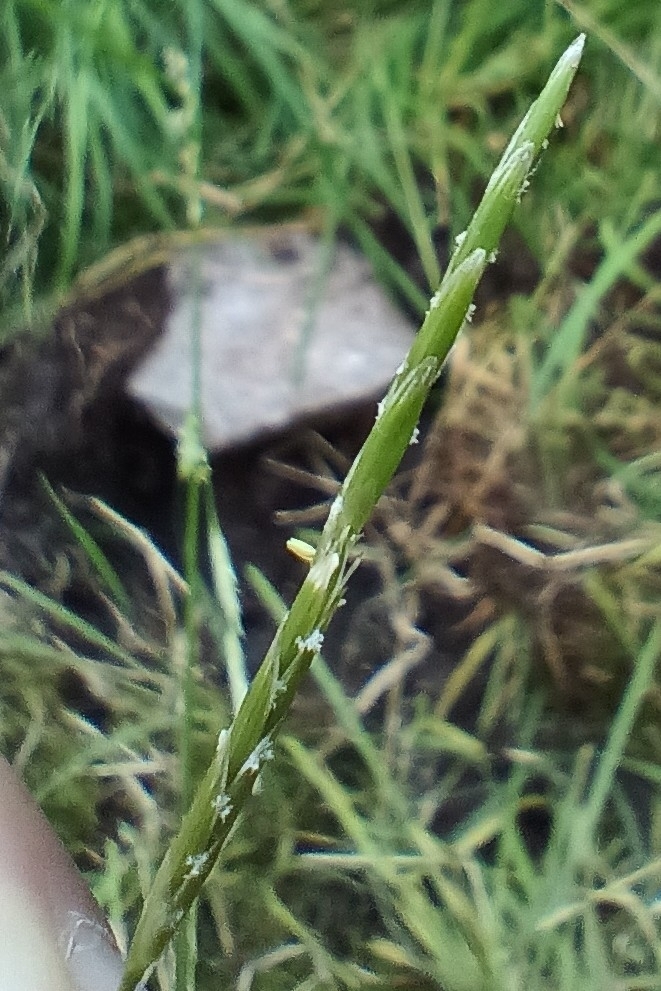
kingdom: Plantae
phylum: Tracheophyta
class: Liliopsida
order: Poales
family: Poaceae
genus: Glyceria
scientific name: Glyceria fluitans
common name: Floating sweet-grass
